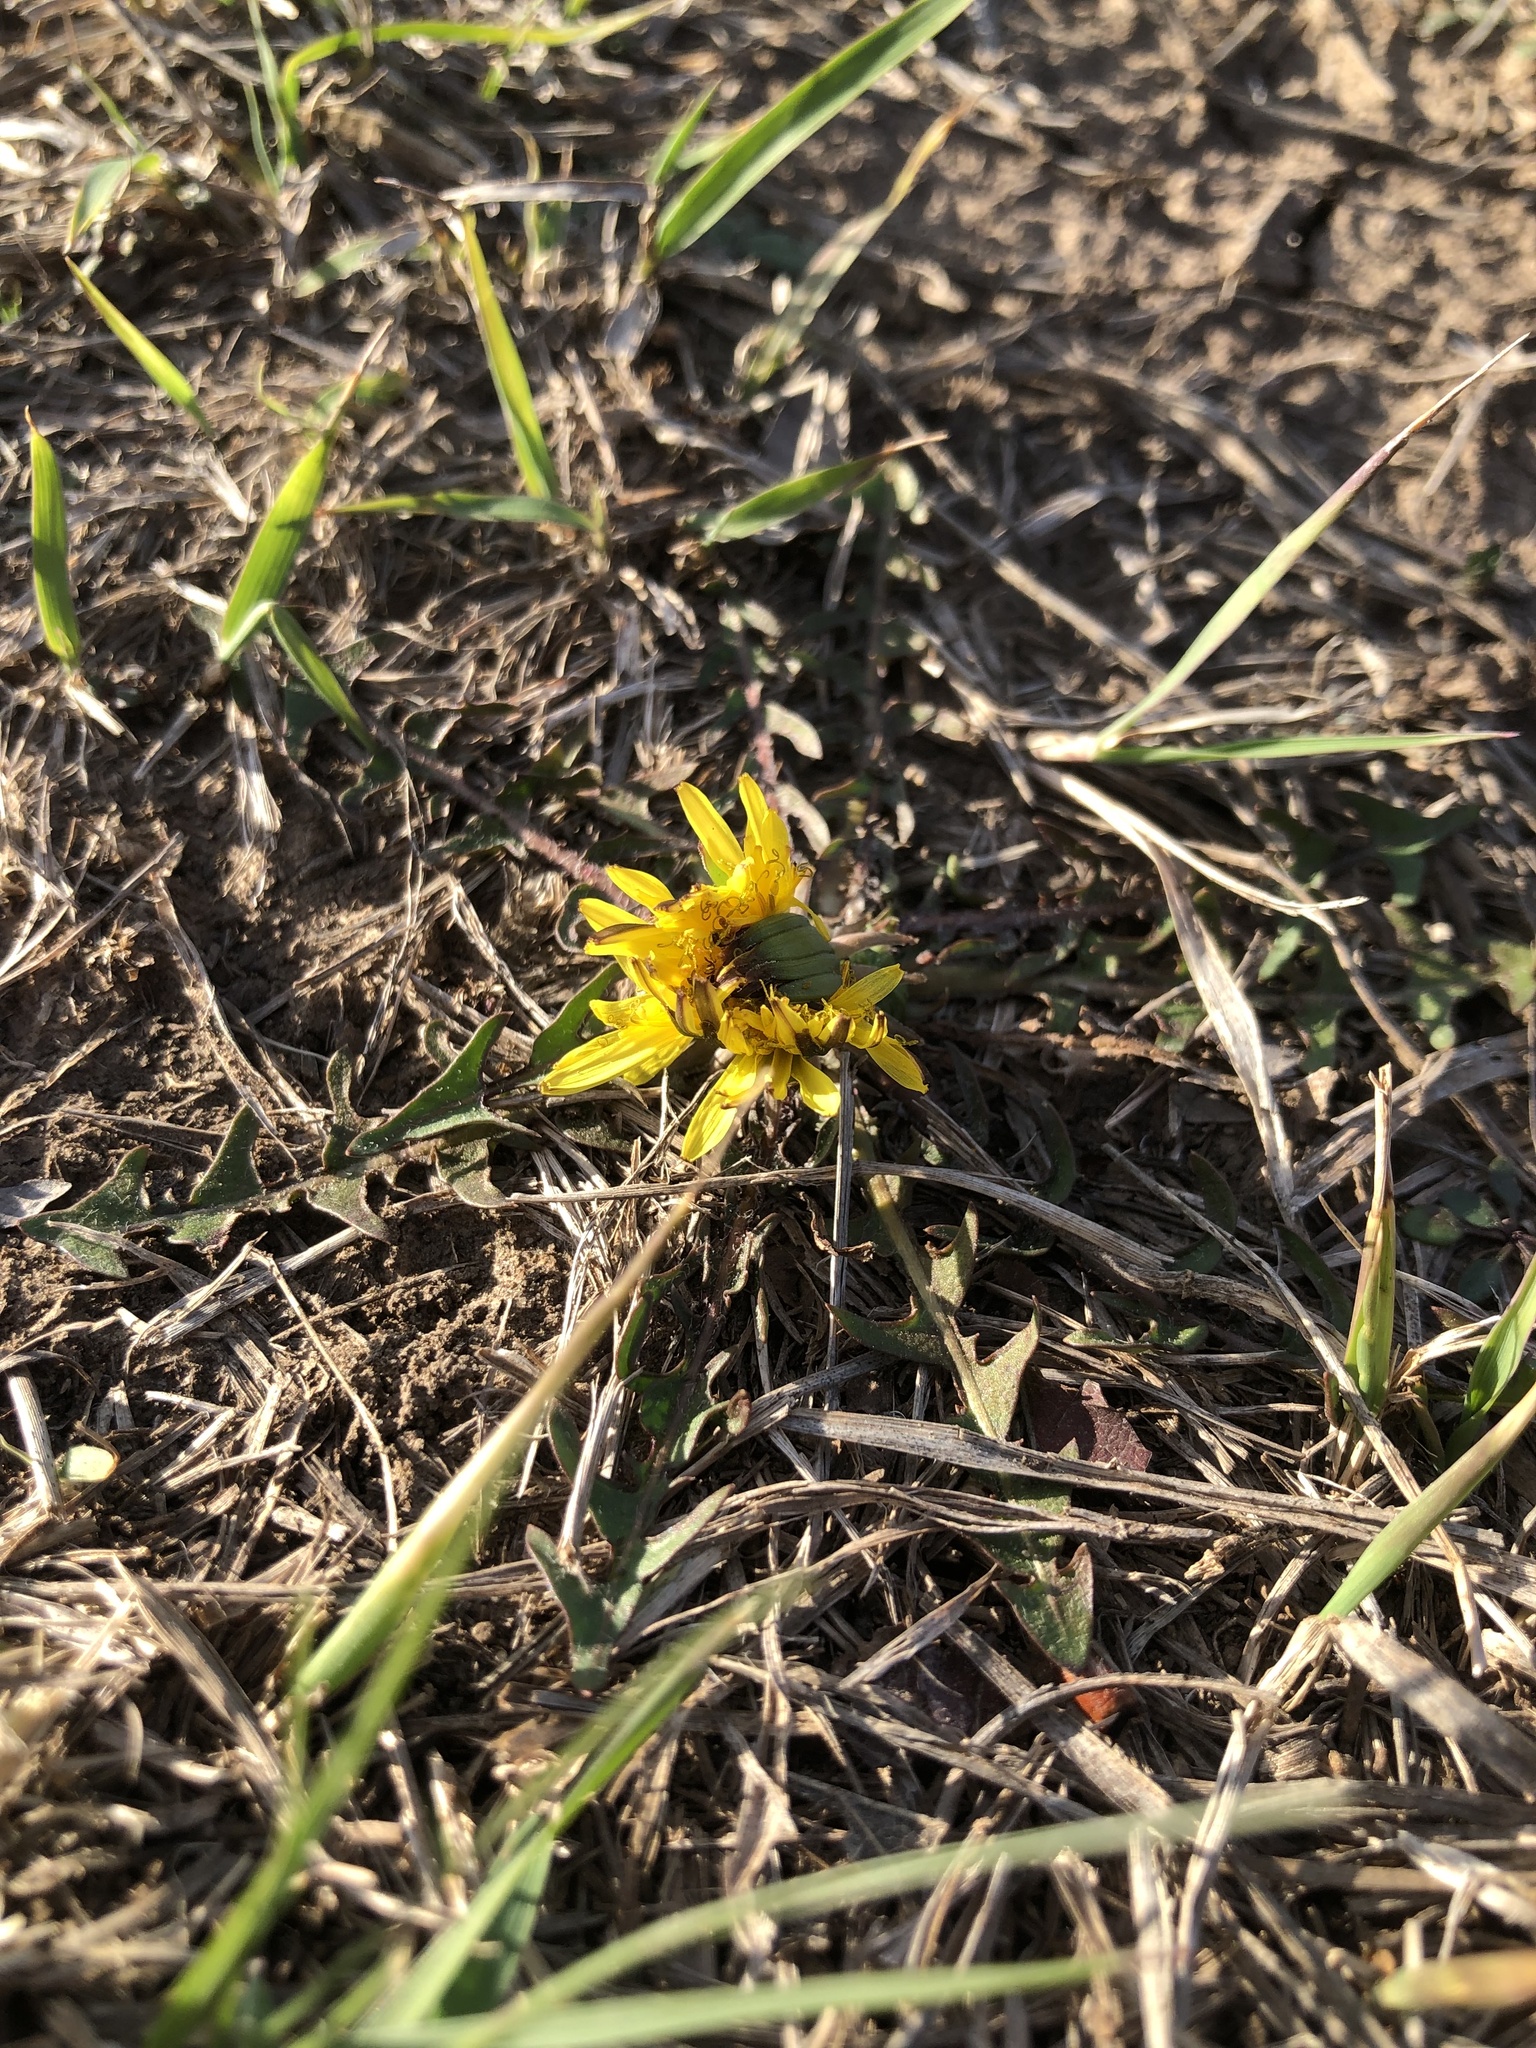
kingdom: Plantae
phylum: Tracheophyta
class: Magnoliopsida
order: Asterales
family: Asteraceae
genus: Taraxacum
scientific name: Taraxacum
